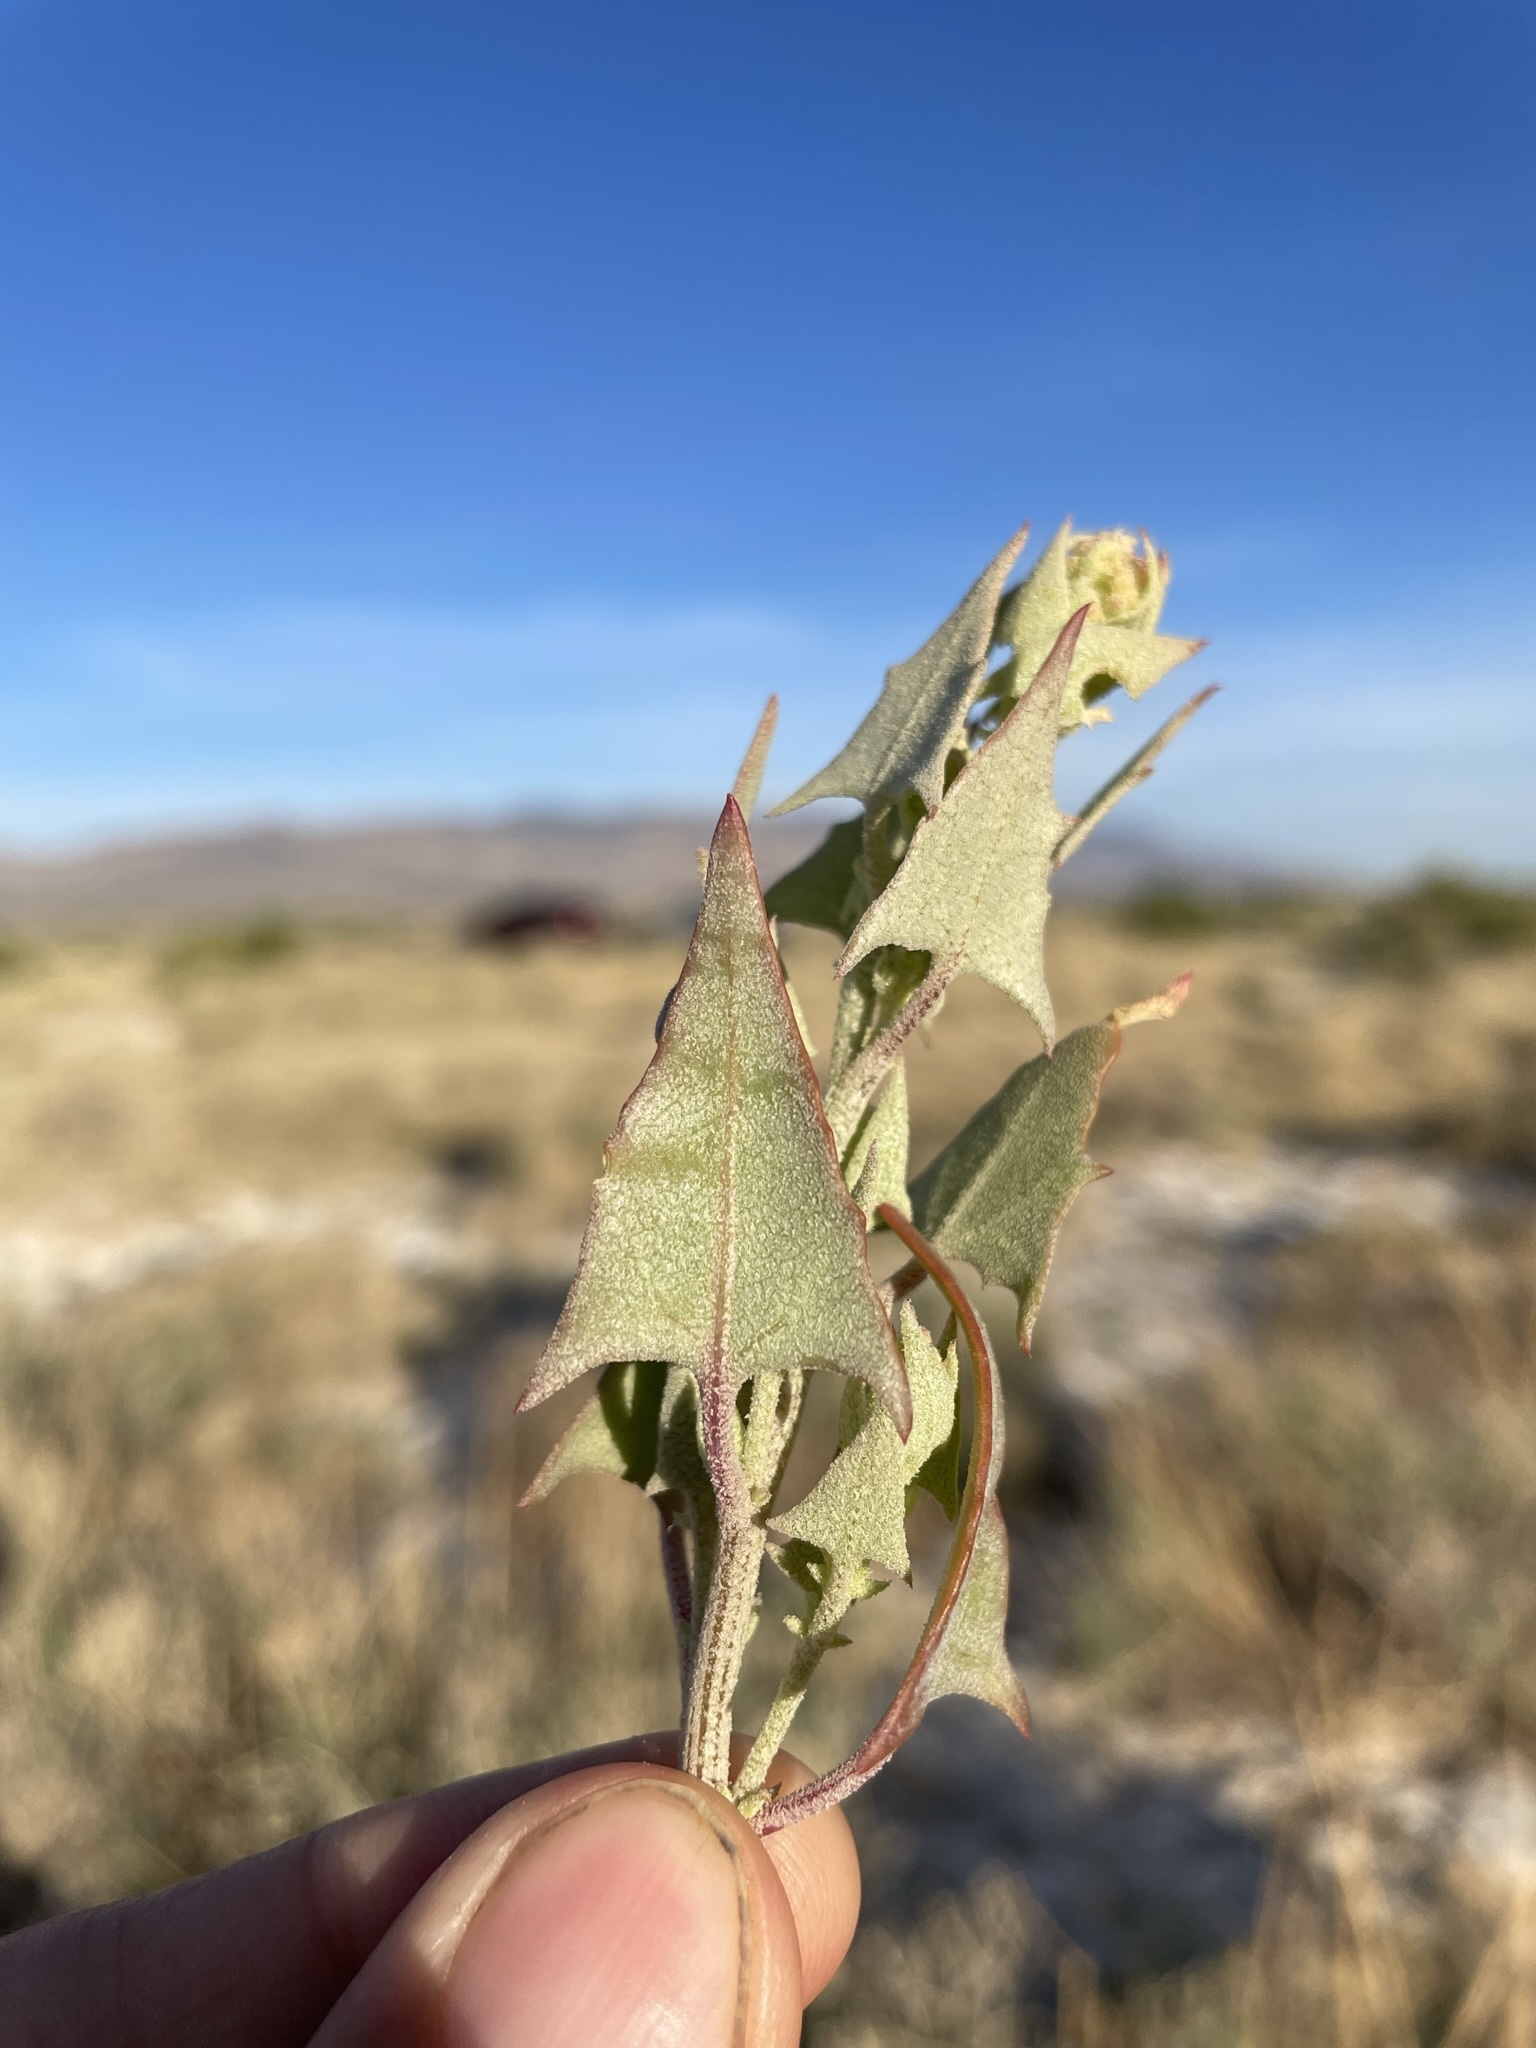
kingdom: Plantae
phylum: Tracheophyta
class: Magnoliopsida
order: Caryophyllales
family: Amaranthaceae
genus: Stutzia
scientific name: Stutzia covillei
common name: Coville's orach
